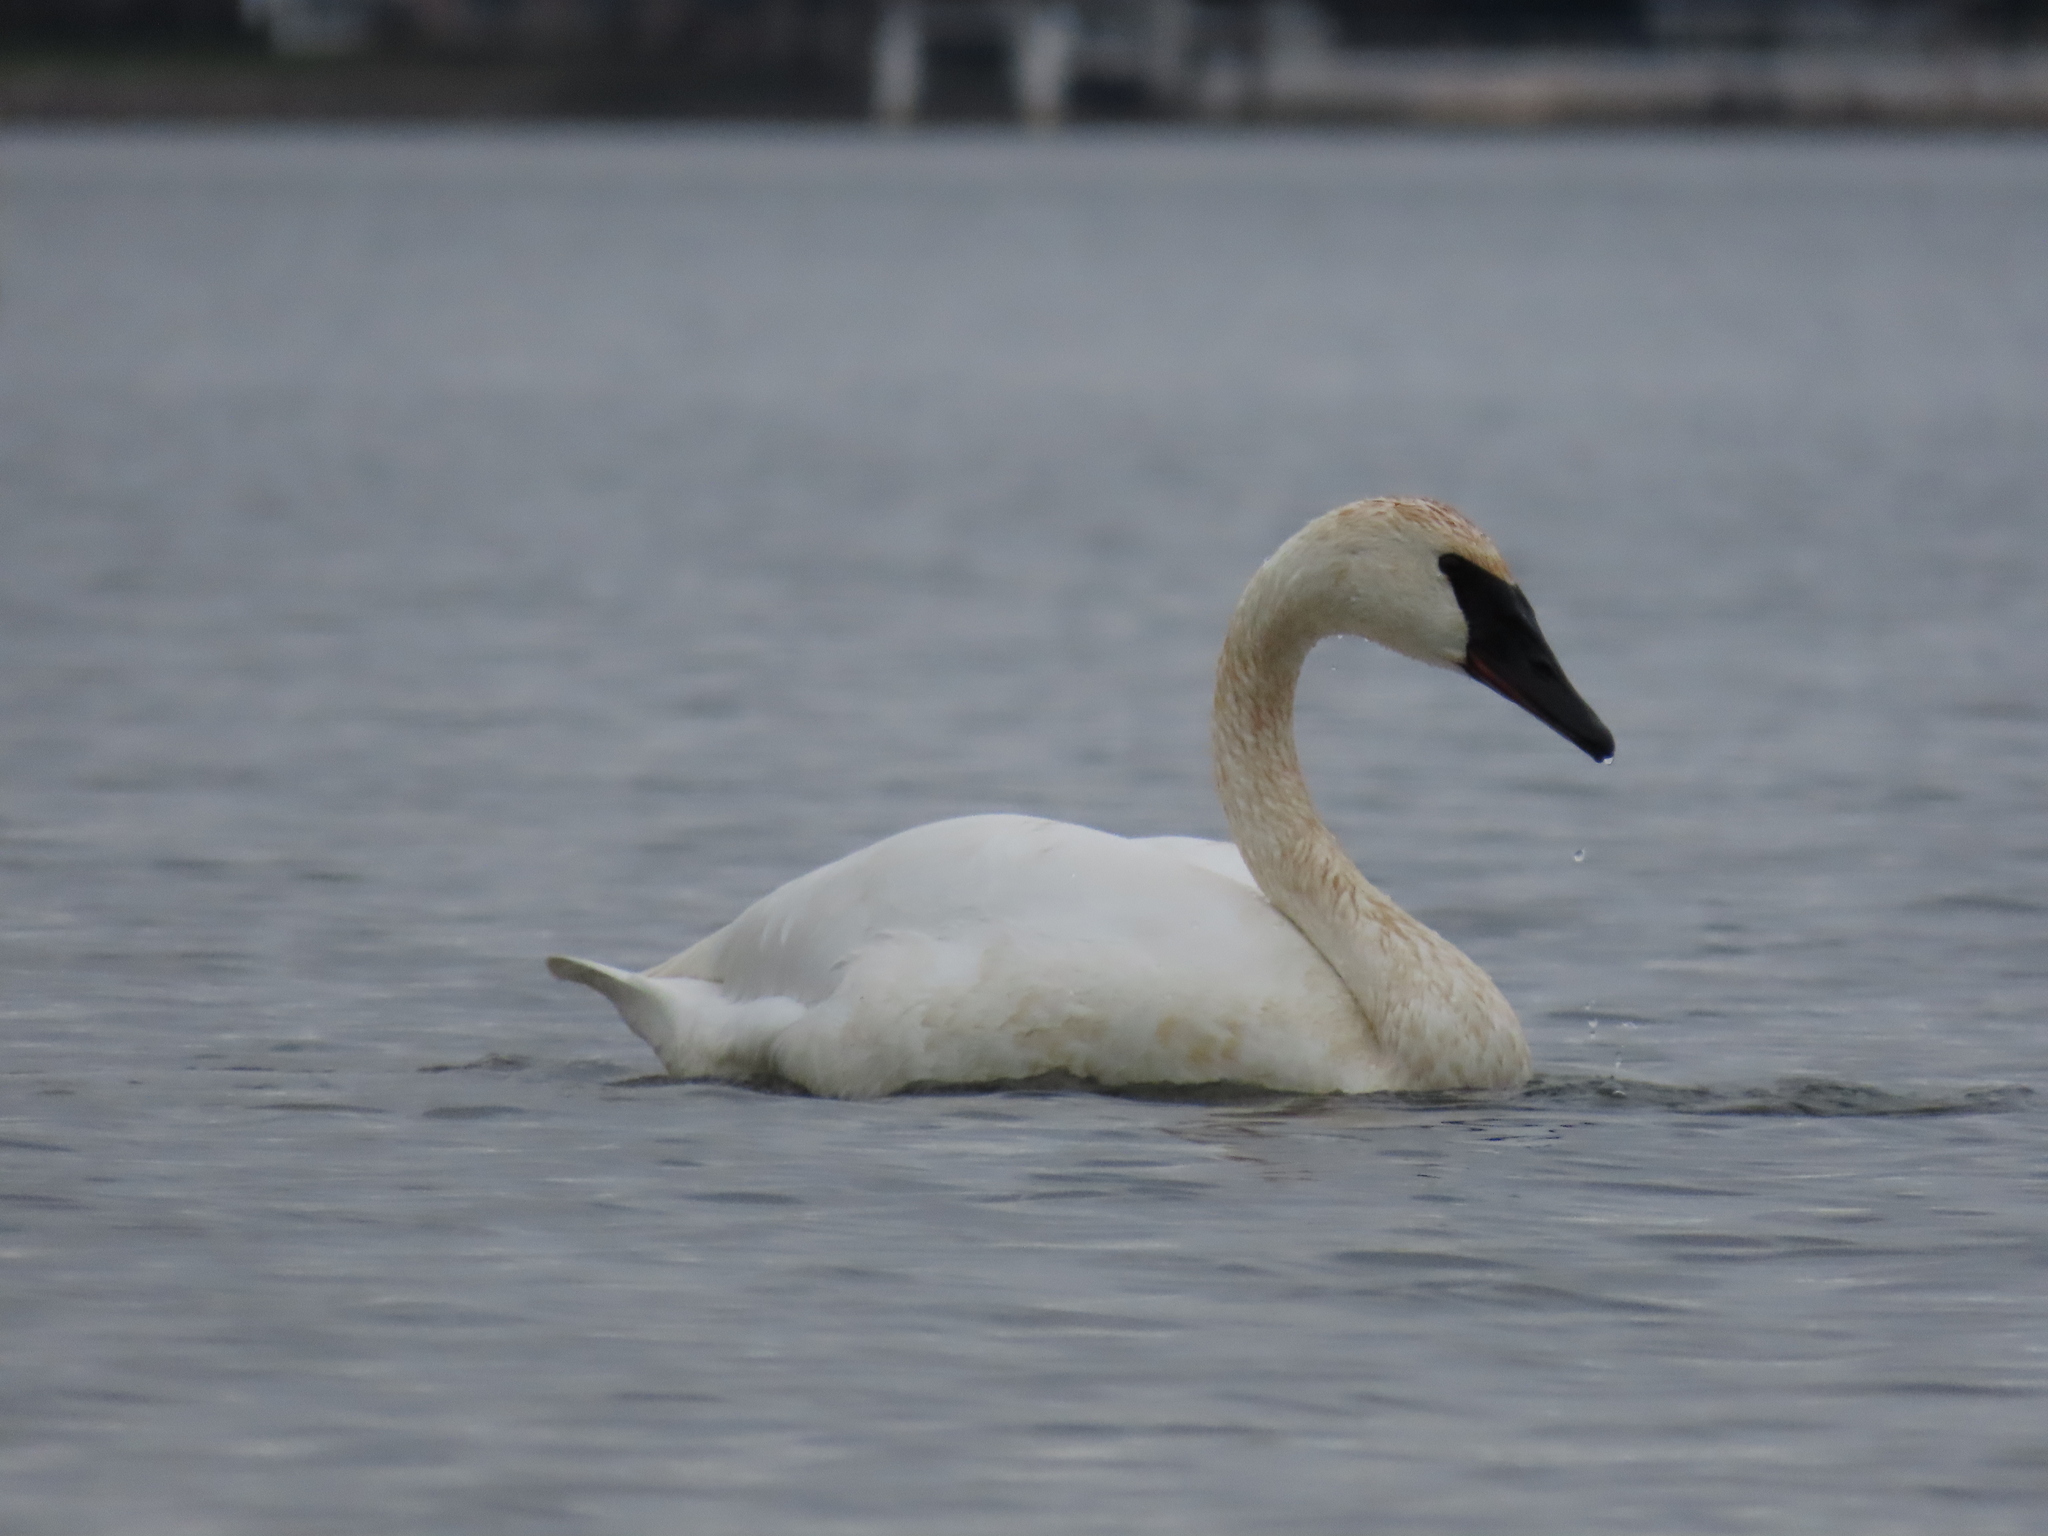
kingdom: Animalia
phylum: Chordata
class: Aves
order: Anseriformes
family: Anatidae
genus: Cygnus
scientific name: Cygnus buccinator
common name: Trumpeter swan
